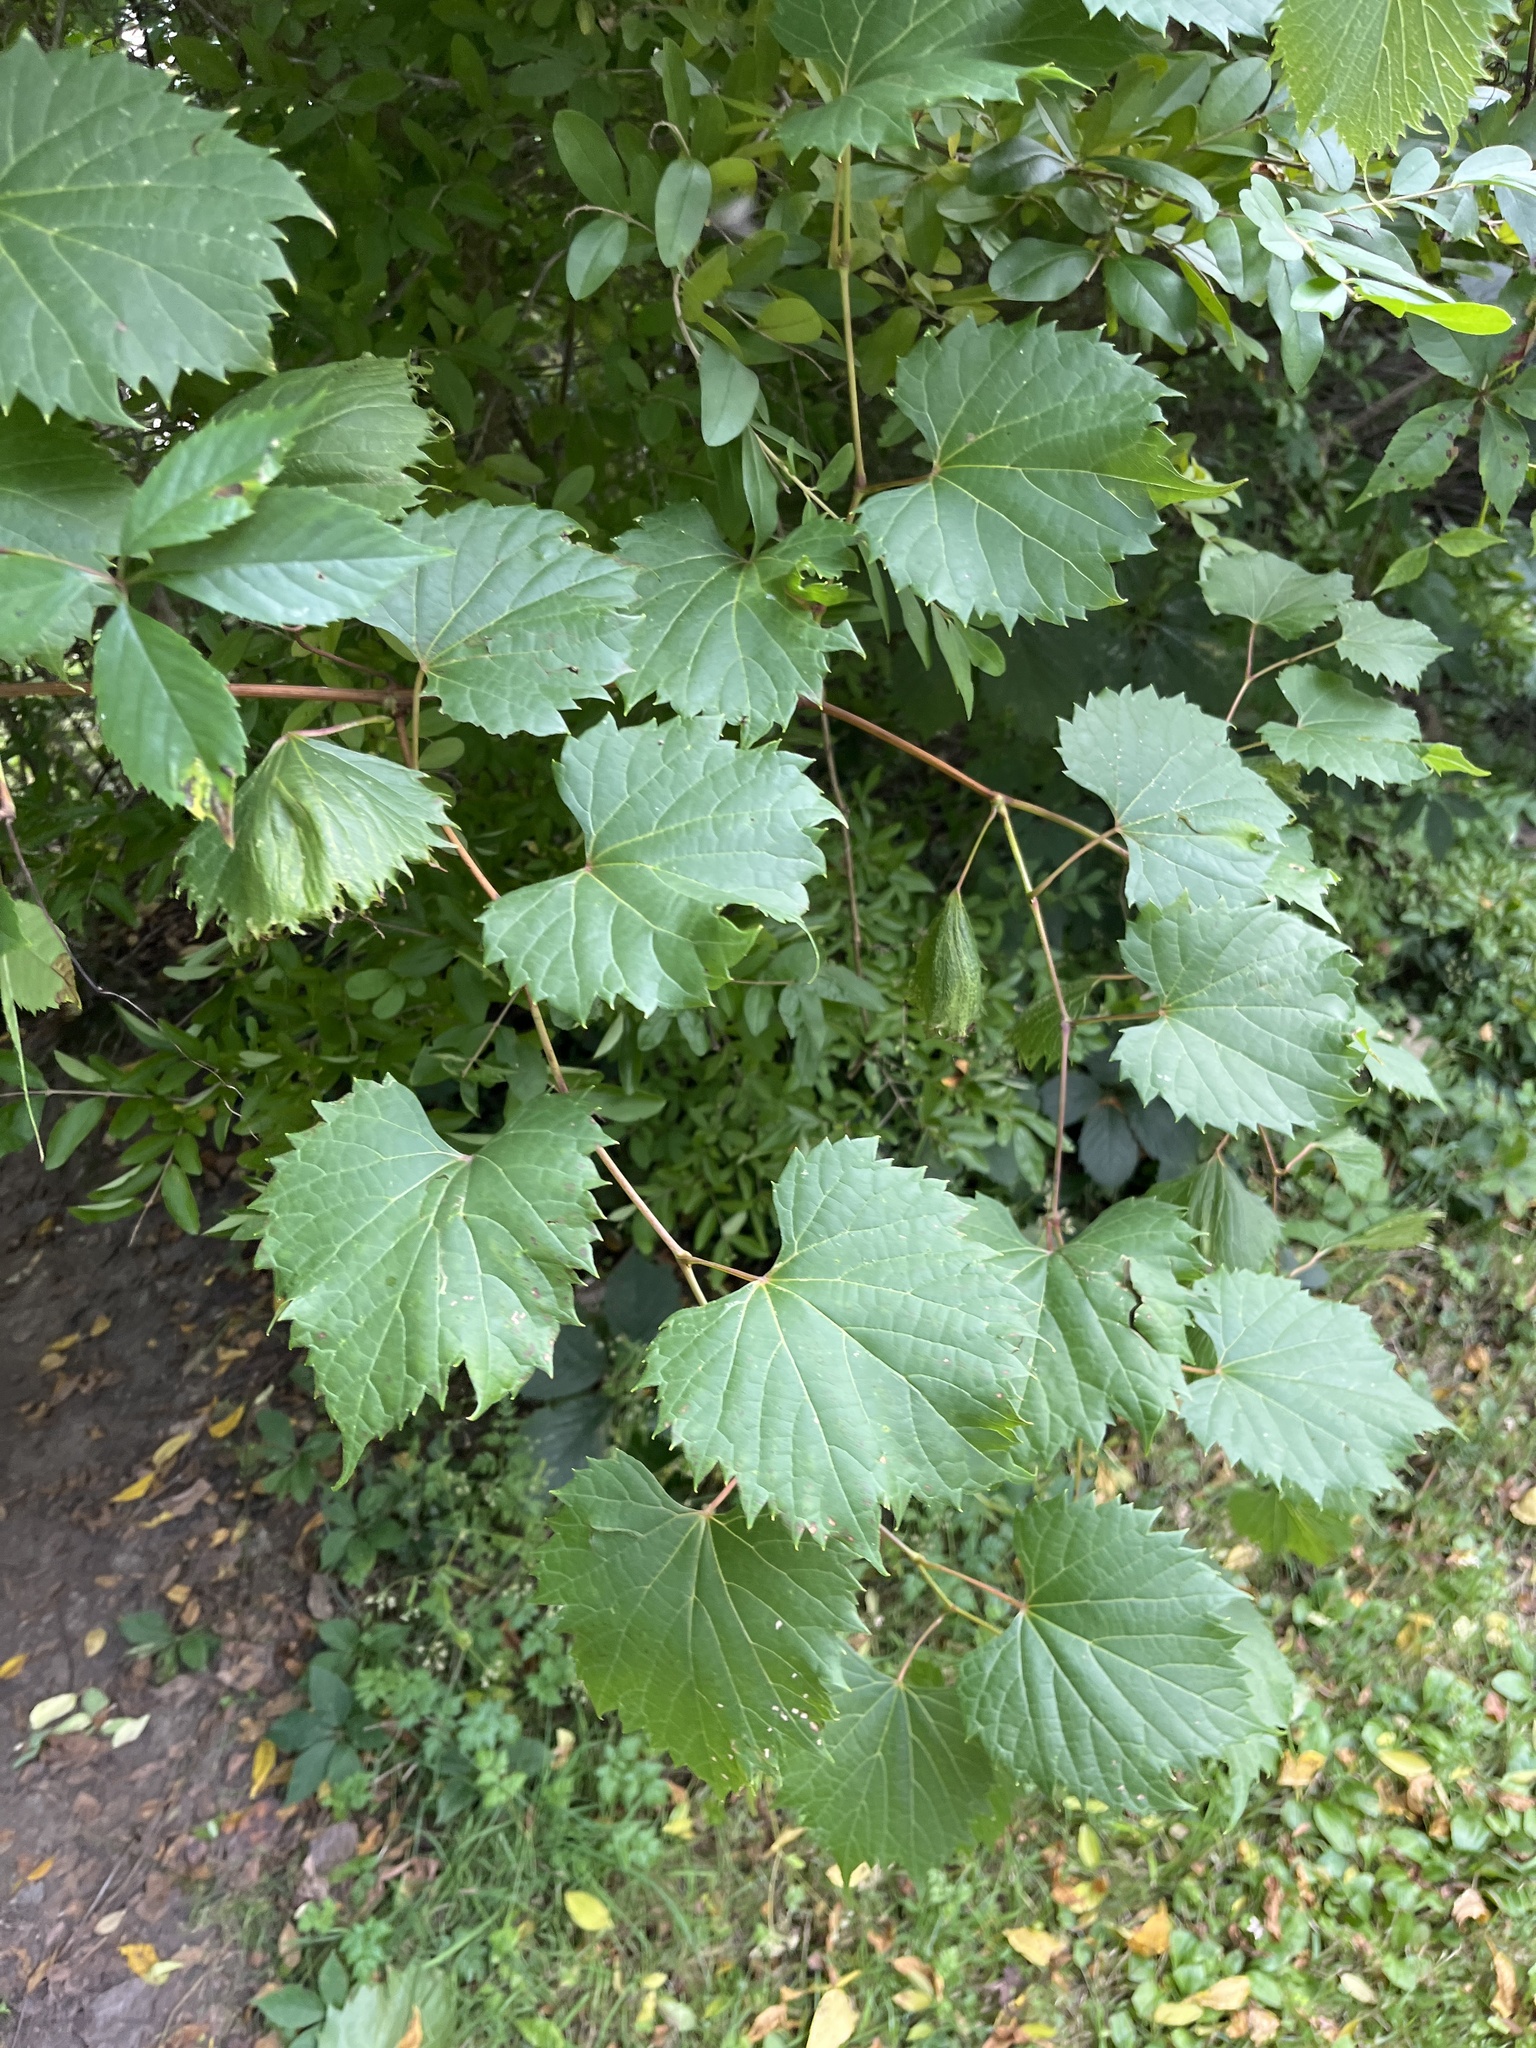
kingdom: Plantae
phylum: Tracheophyta
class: Magnoliopsida
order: Vitales
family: Vitaceae
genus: Vitis
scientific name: Vitis riparia
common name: Frost grape
